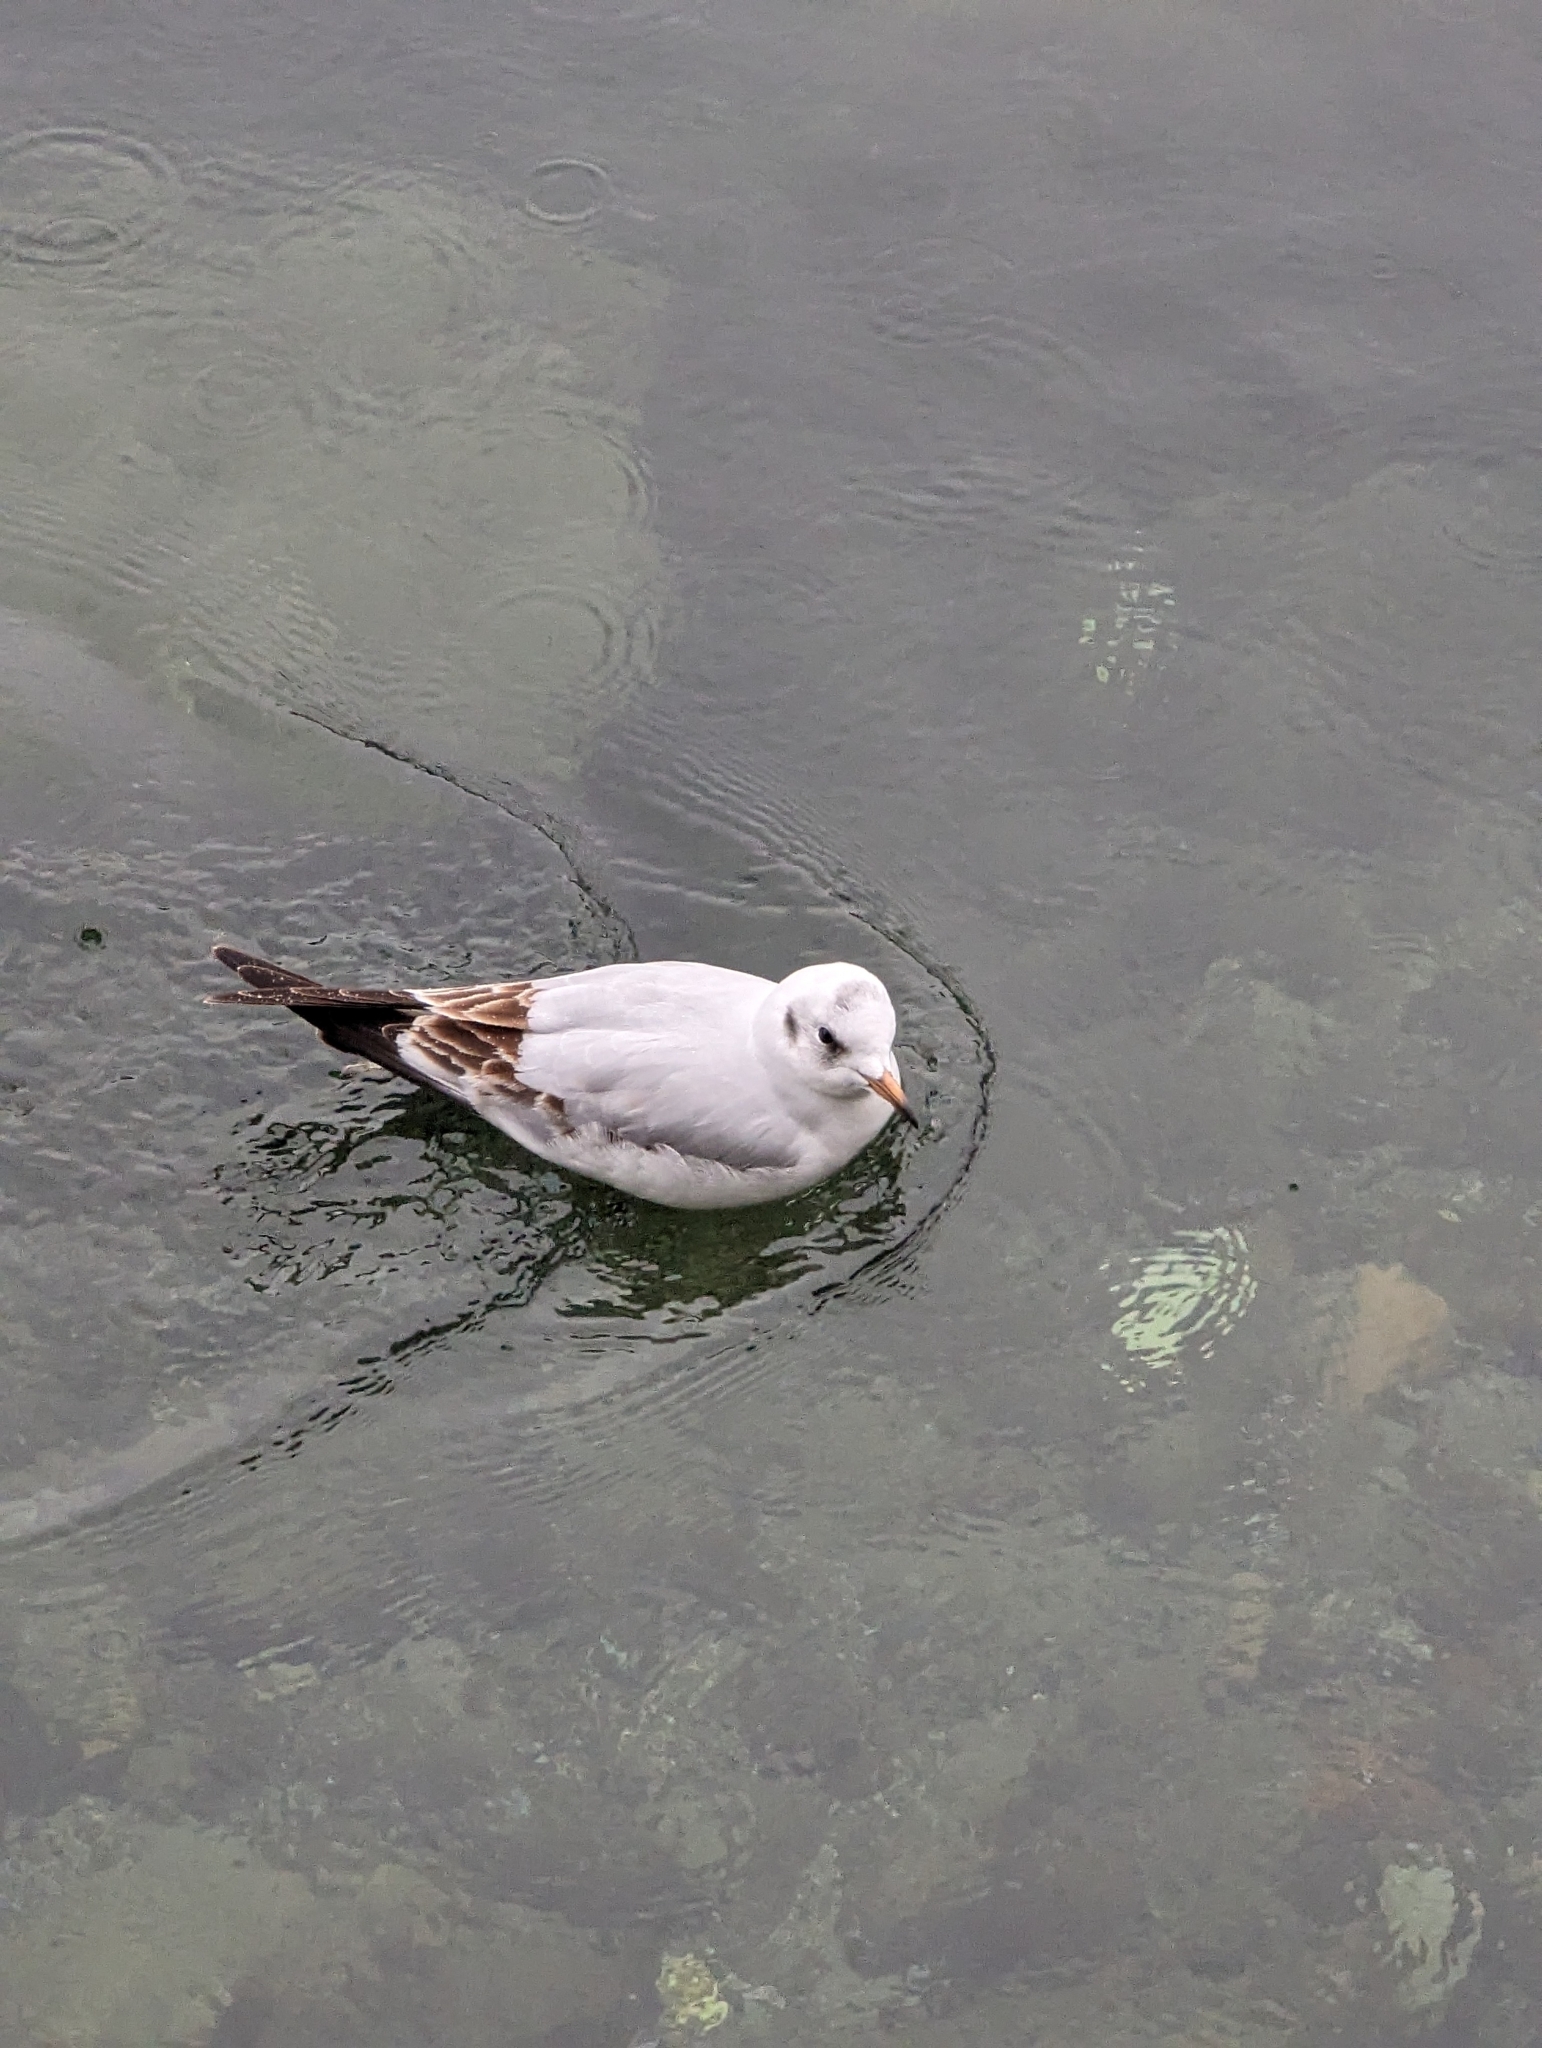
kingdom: Animalia
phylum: Chordata
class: Aves
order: Charadriiformes
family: Laridae
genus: Chroicocephalus
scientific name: Chroicocephalus ridibundus
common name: Black-headed gull
